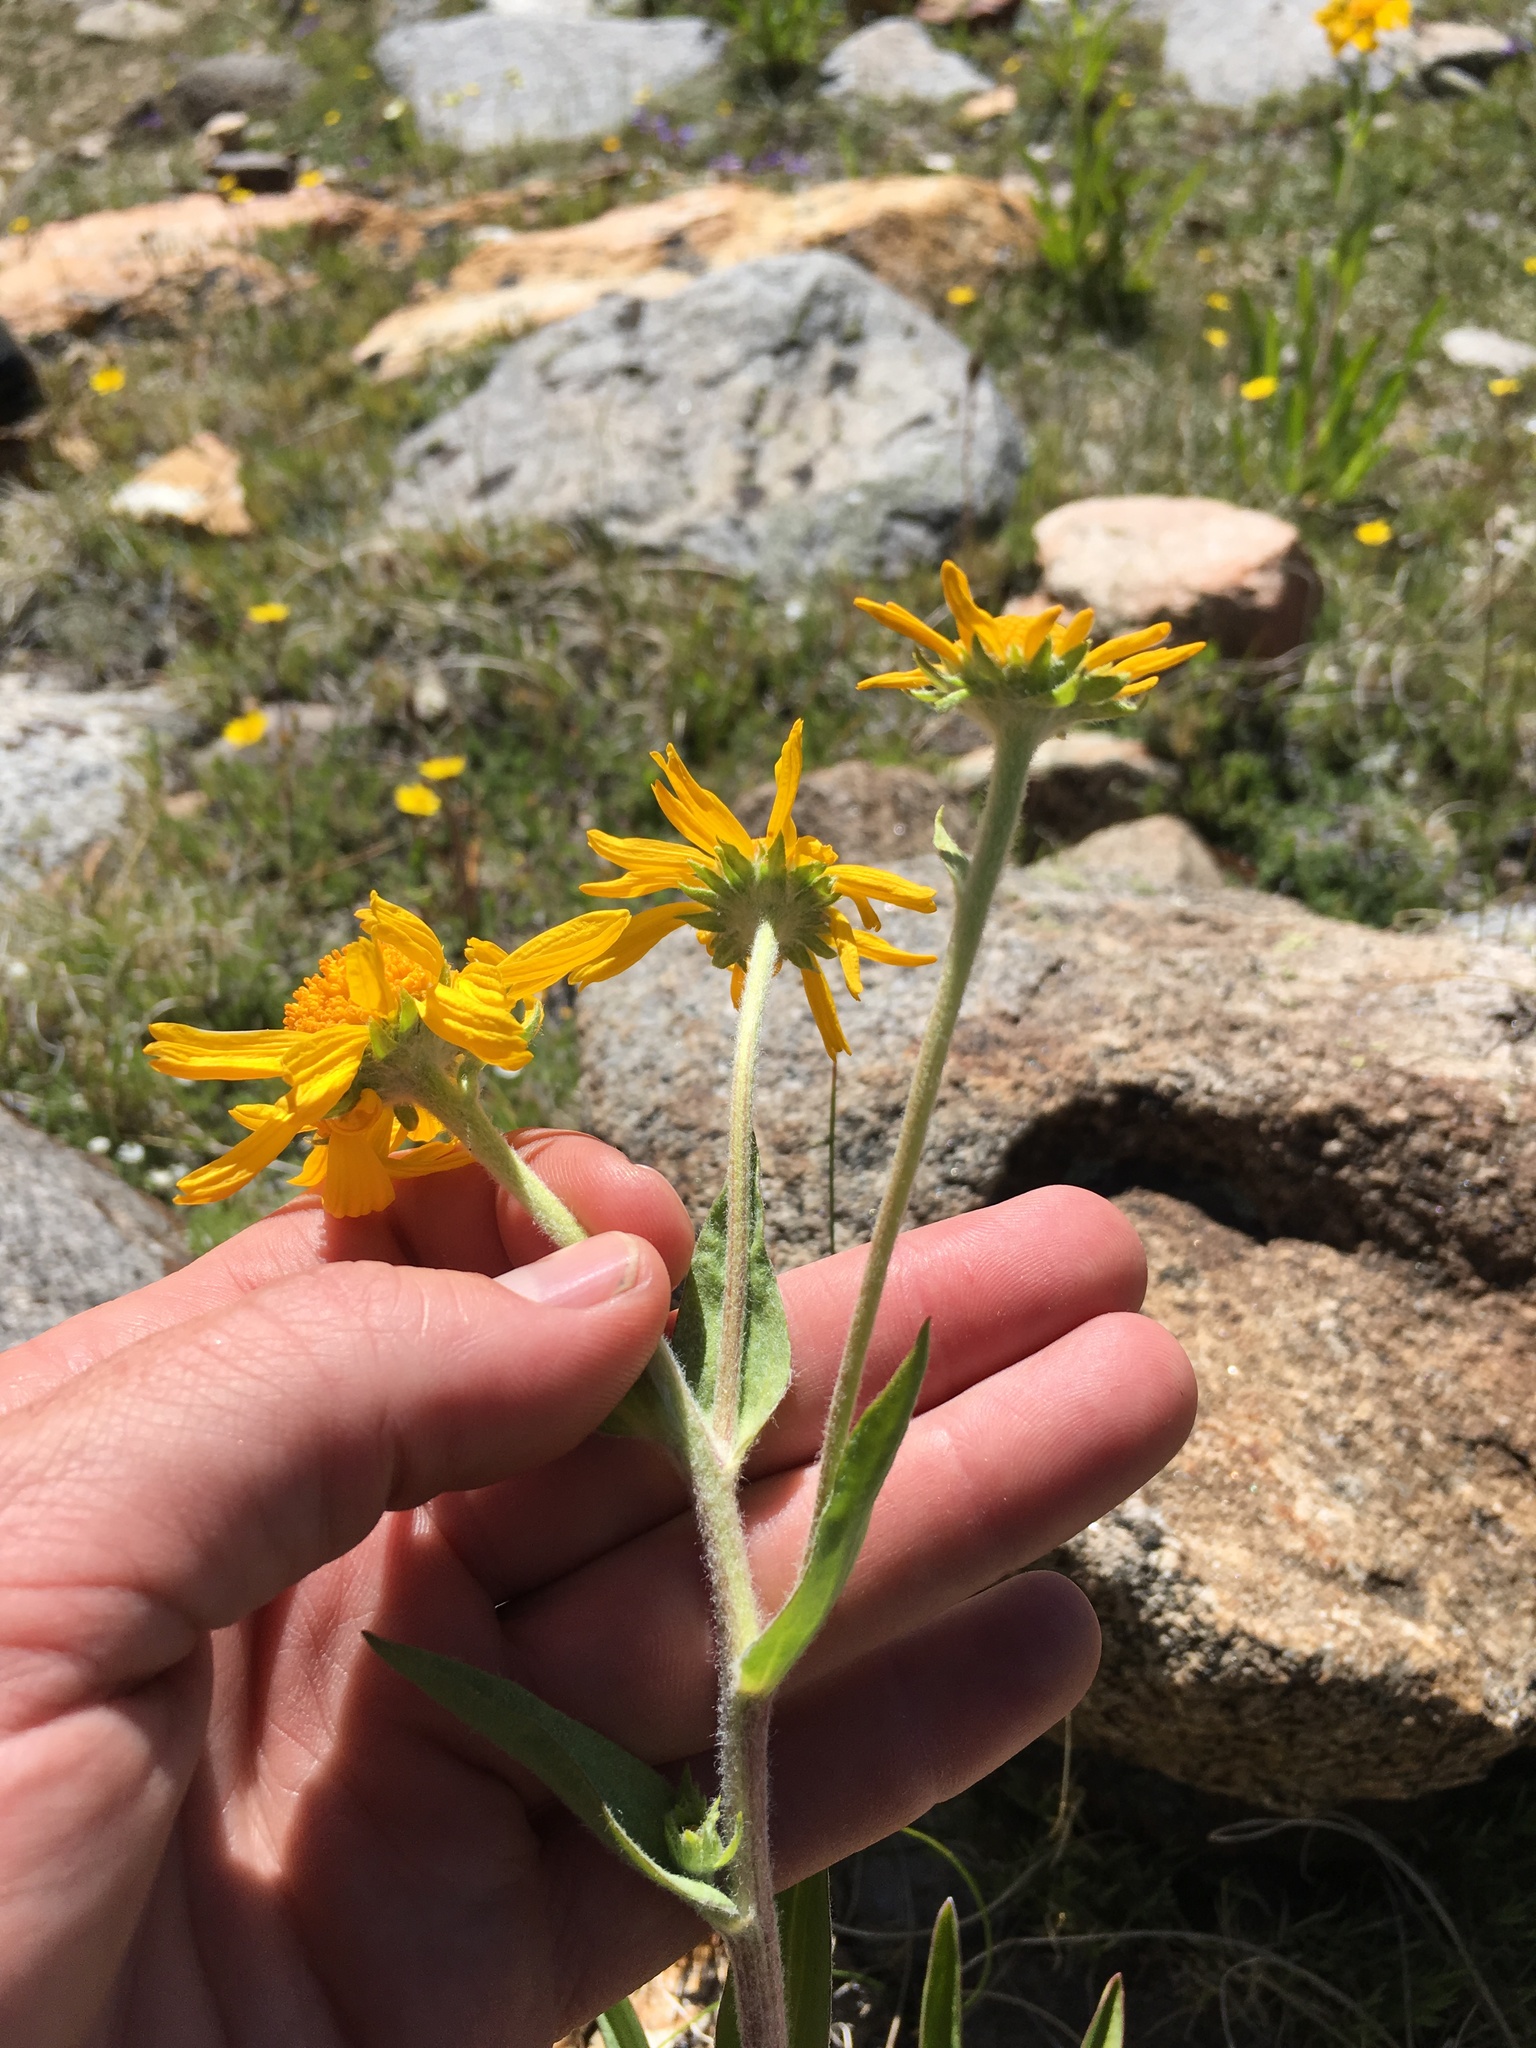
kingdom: Plantae
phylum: Tracheophyta
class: Magnoliopsida
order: Asterales
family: Asteraceae
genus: Hymenoxys
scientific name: Hymenoxys hoopesii
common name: Orange-sneezeweed
